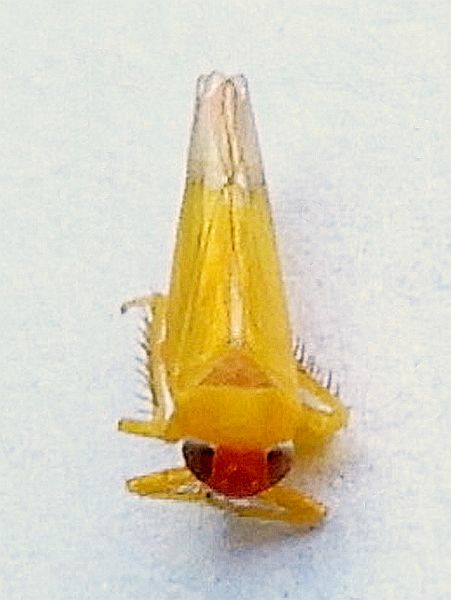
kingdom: Animalia
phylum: Arthropoda
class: Insecta
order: Hemiptera
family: Cicadellidae
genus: Alebra
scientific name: Alebra rubrafrons
